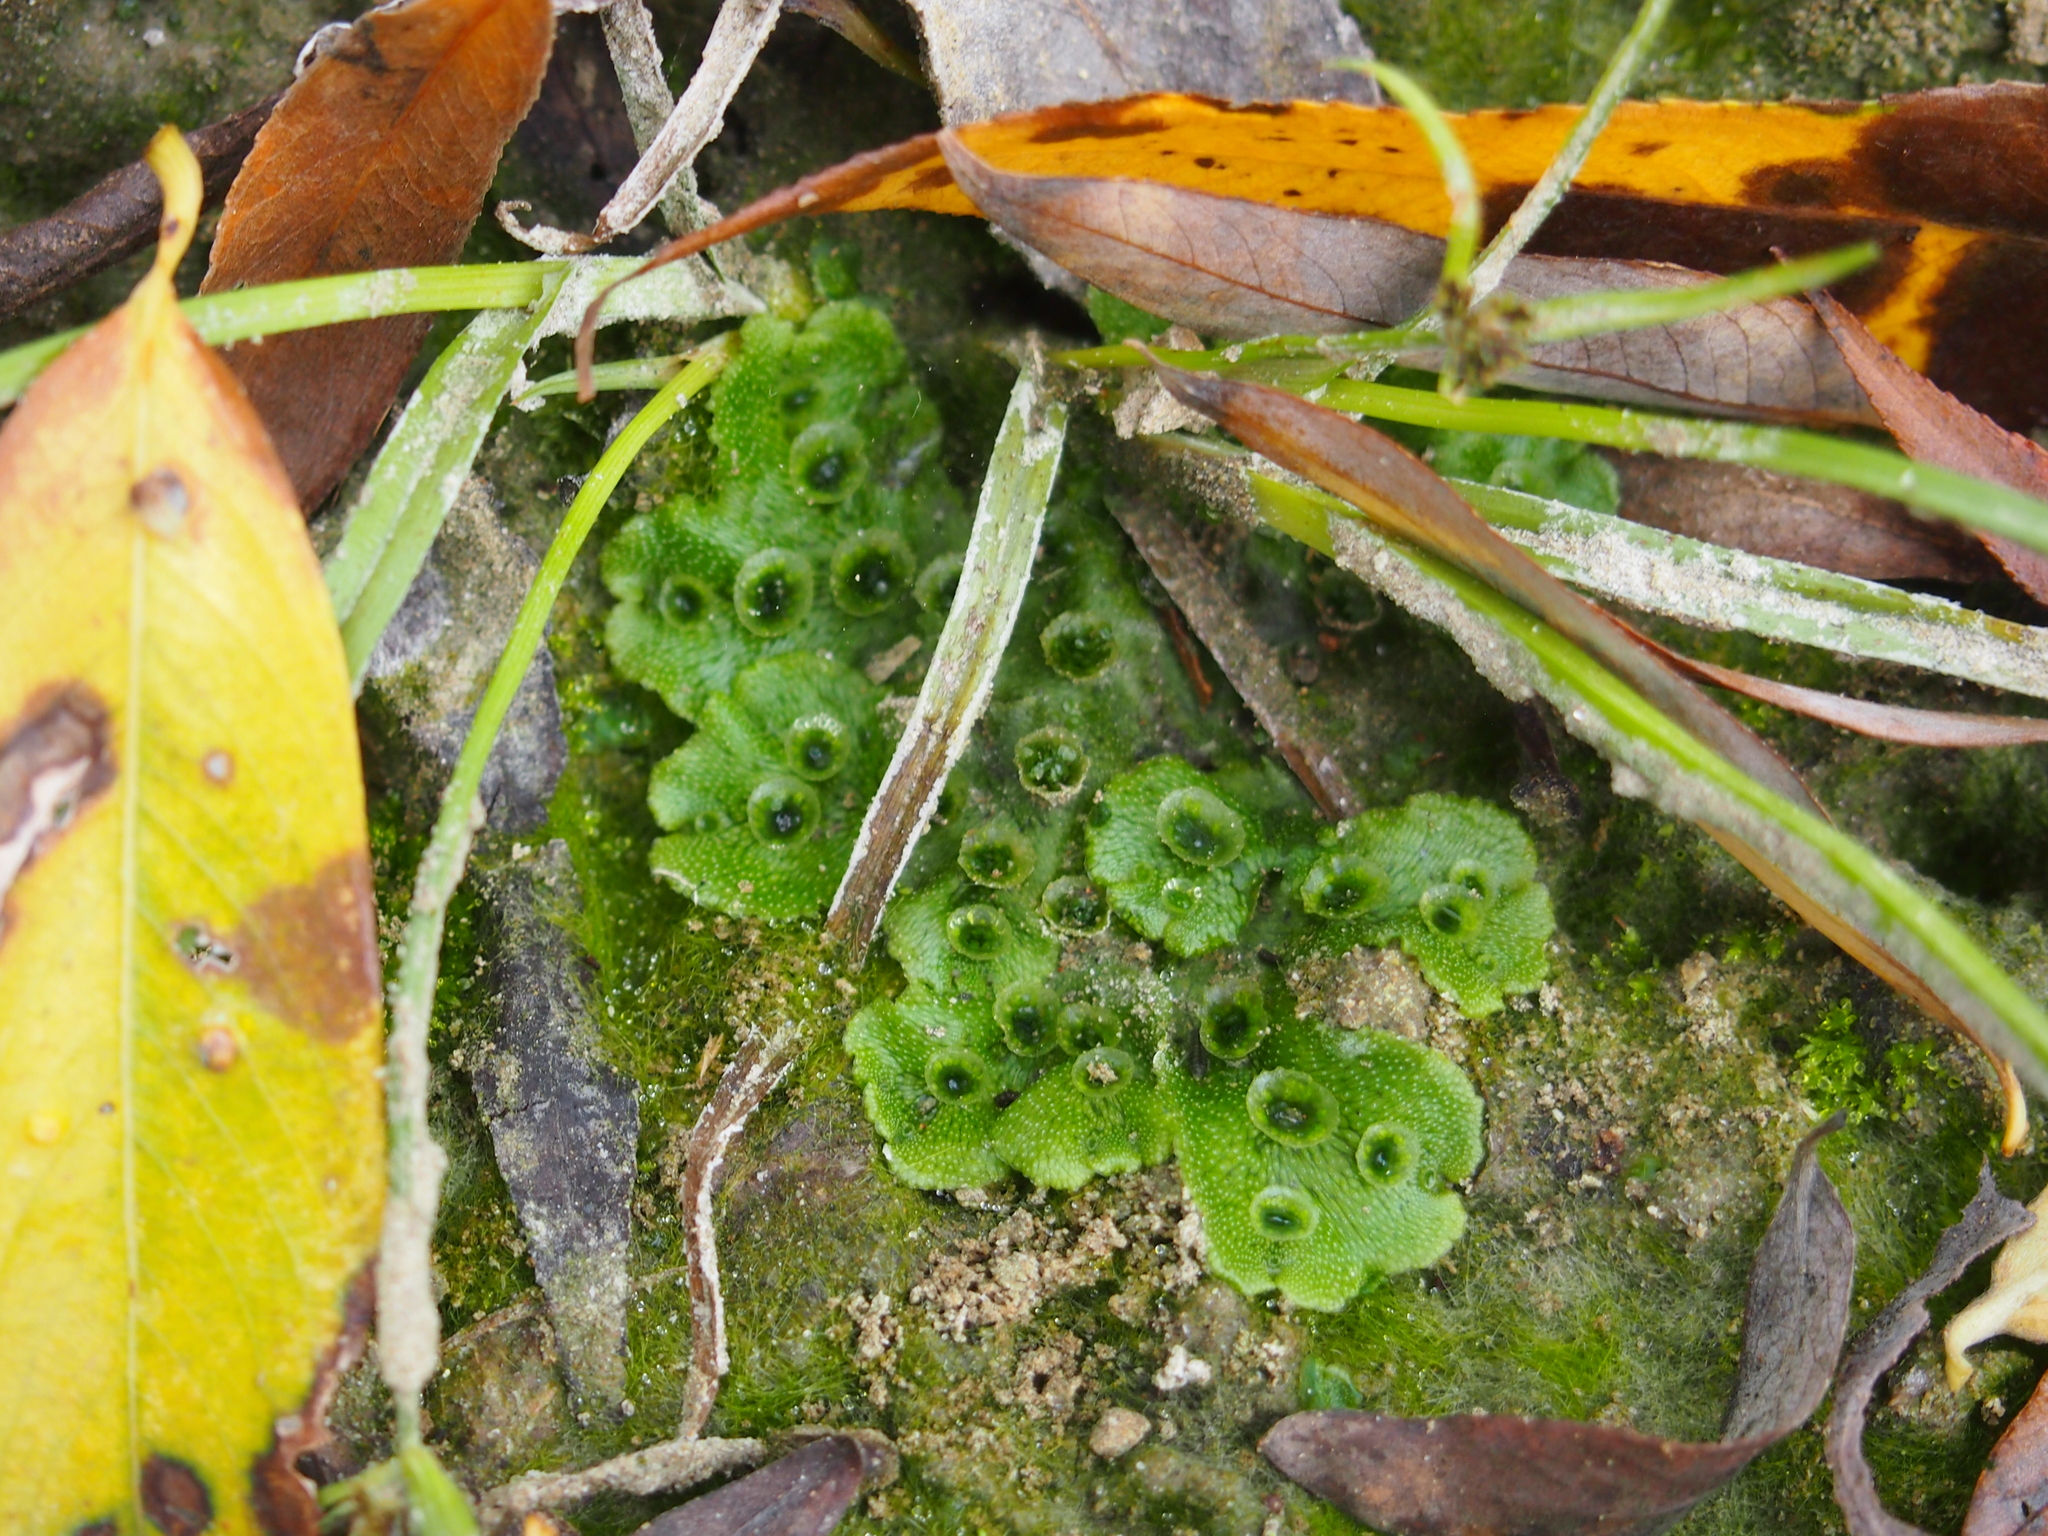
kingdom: Plantae
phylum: Marchantiophyta
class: Marchantiopsida
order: Marchantiales
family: Marchantiaceae
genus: Marchantia
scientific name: Marchantia polymorpha
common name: Common liverwort
